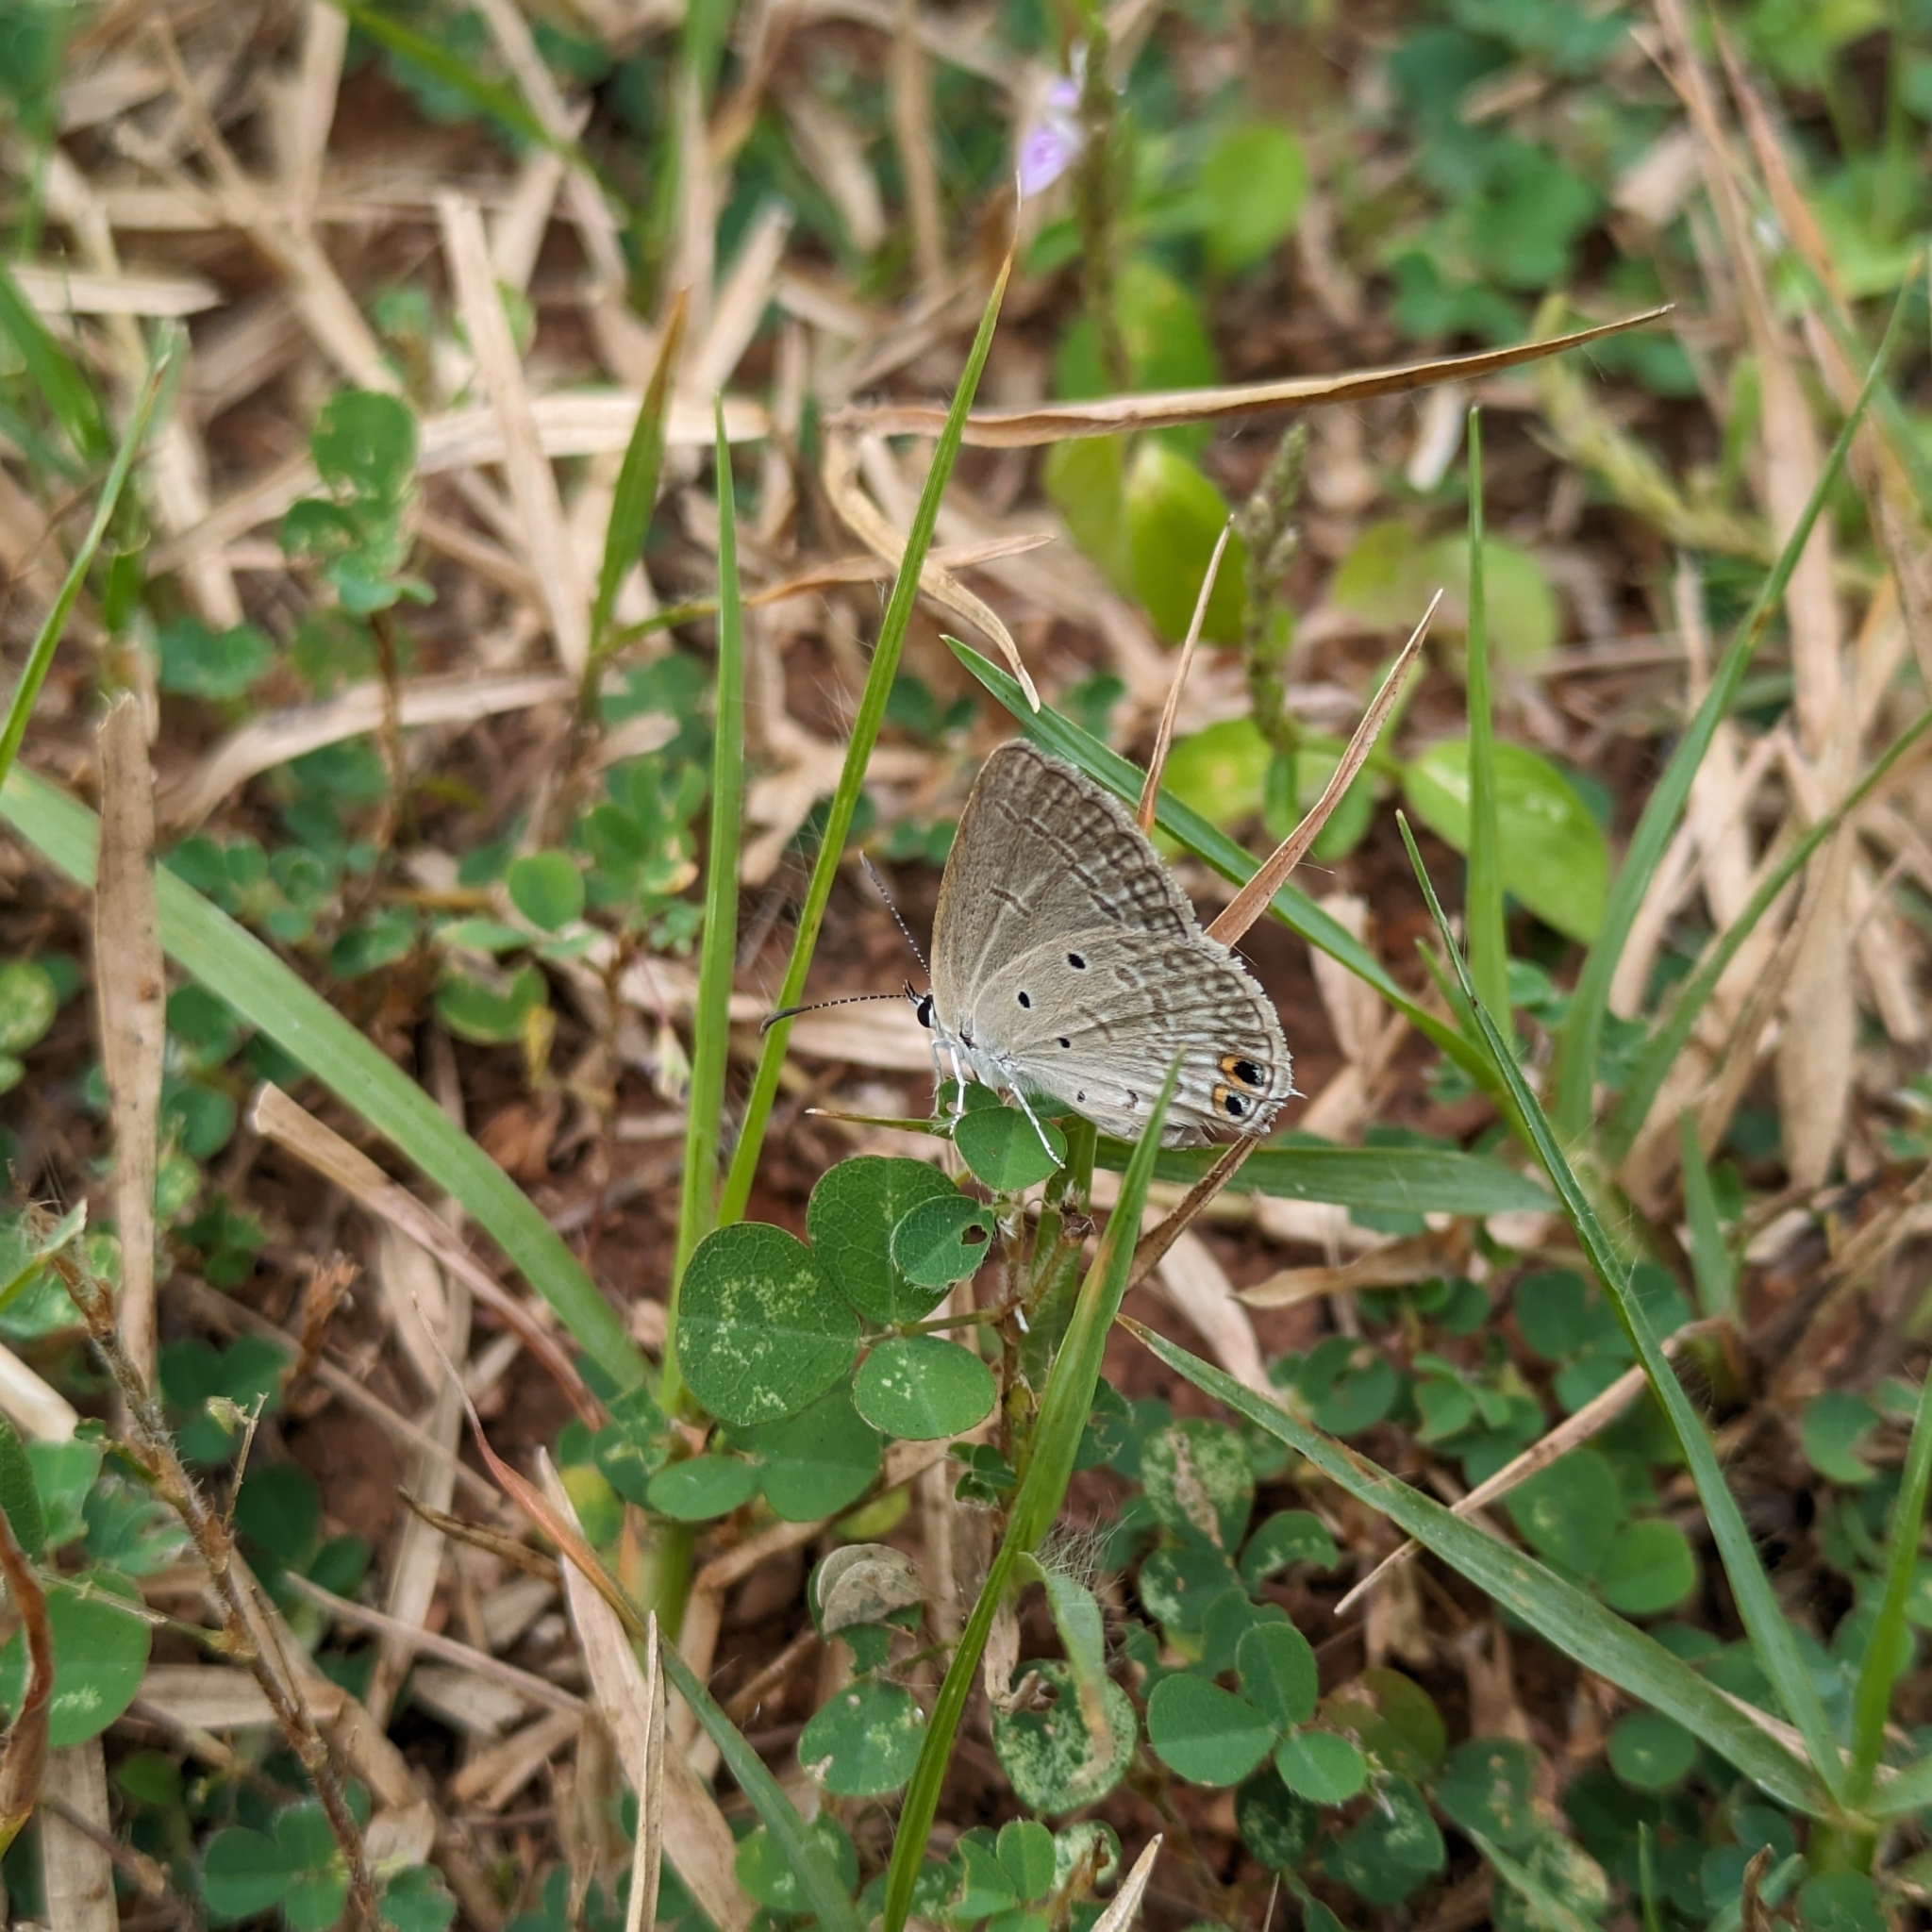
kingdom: Animalia
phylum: Arthropoda
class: Insecta
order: Lepidoptera
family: Lycaenidae
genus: Euchrysops
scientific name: Euchrysops cnejus
